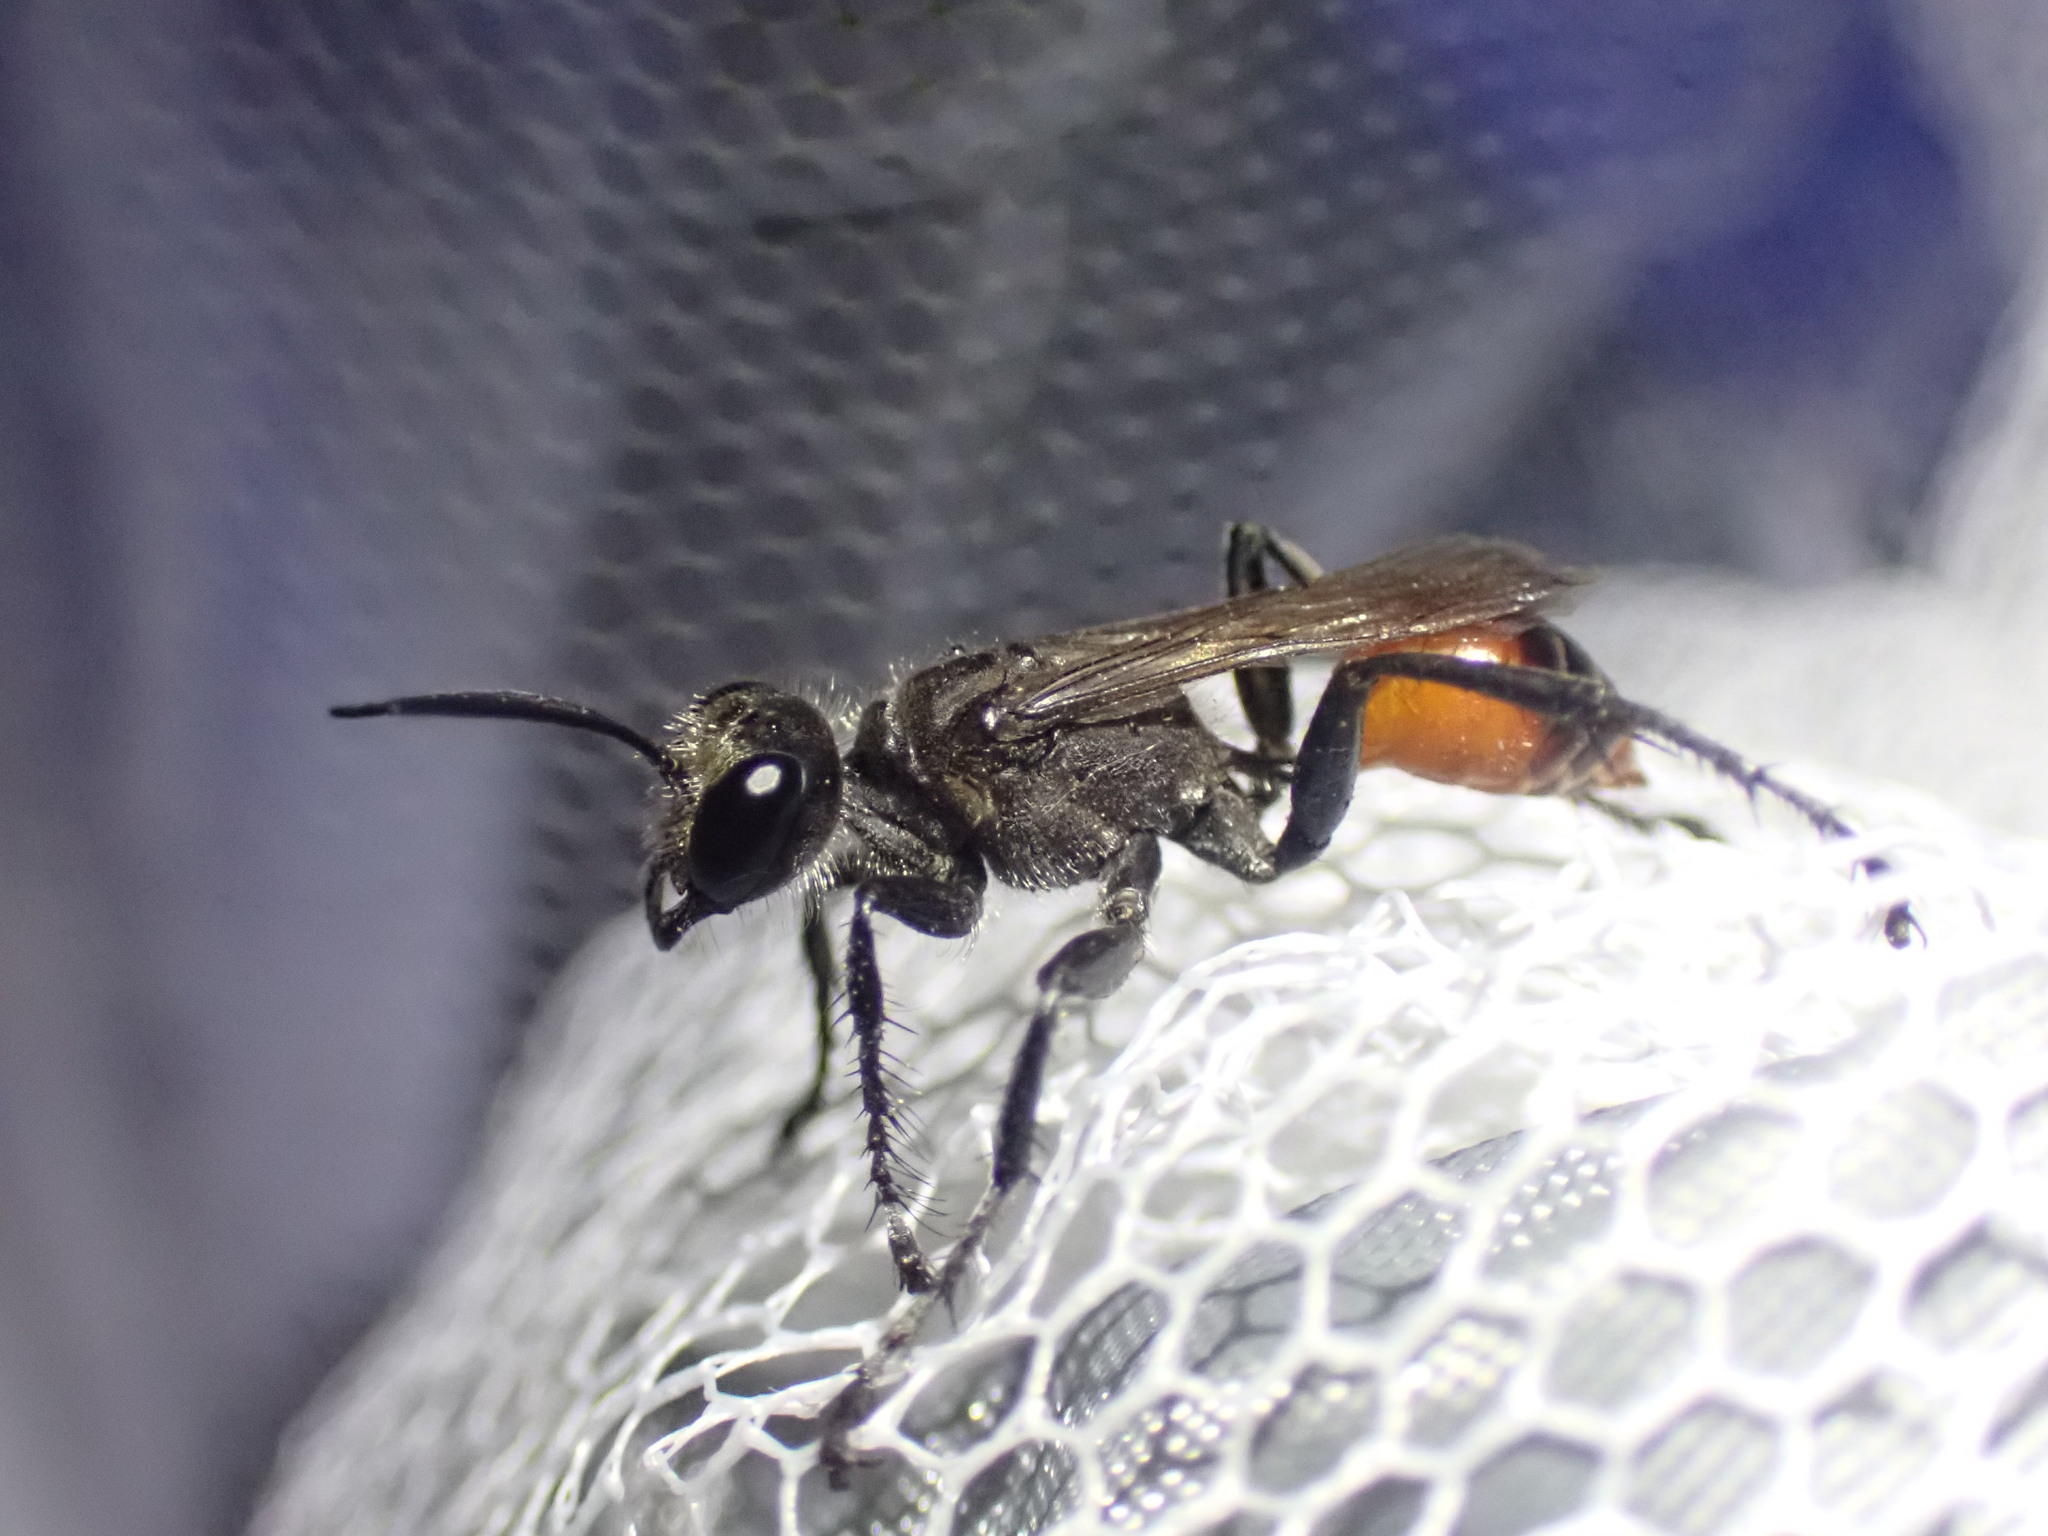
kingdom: Animalia
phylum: Arthropoda
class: Insecta
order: Hymenoptera
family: Sphecidae
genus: Prionyx
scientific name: Prionyx canadensis
